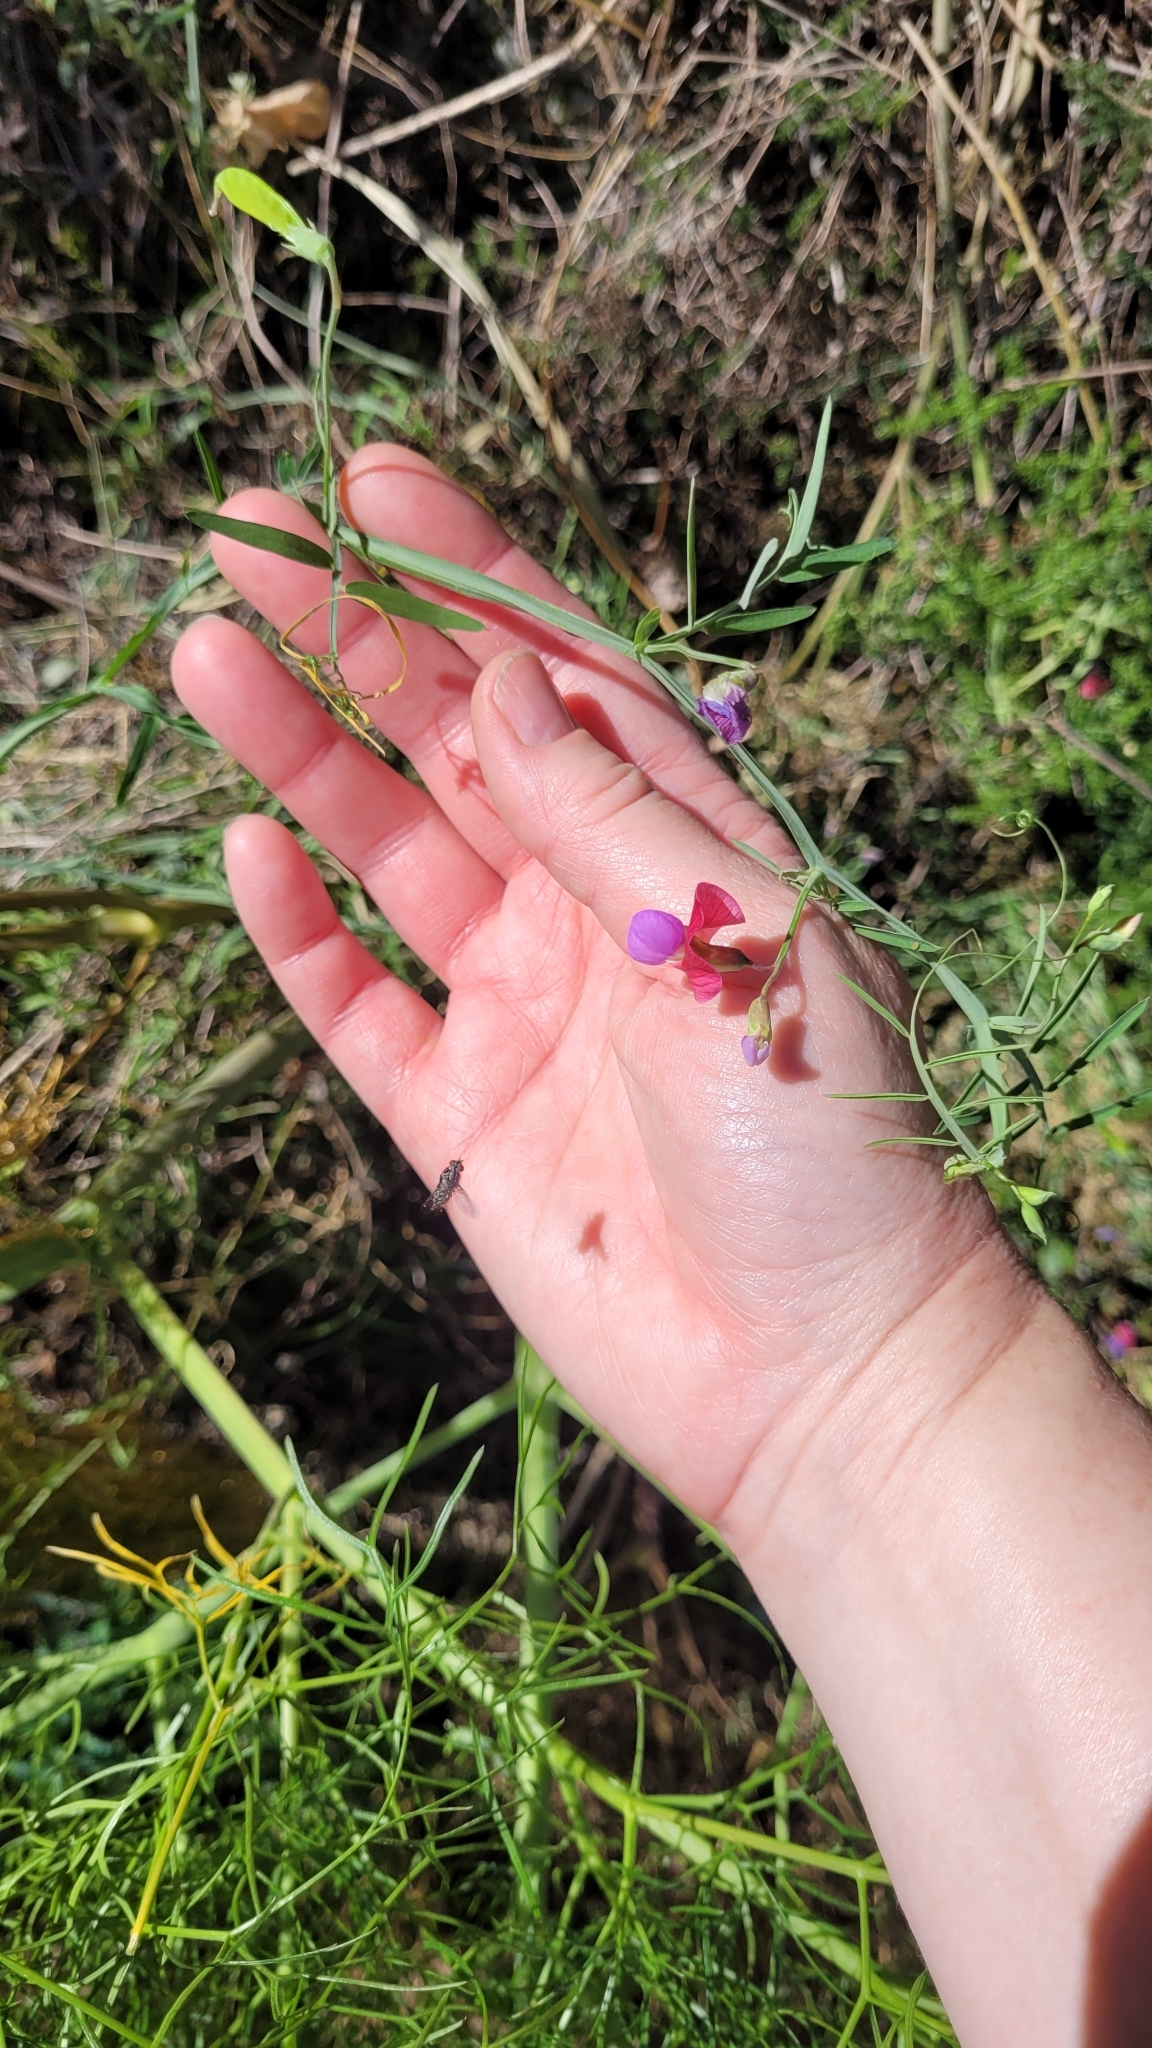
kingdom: Plantae
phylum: Tracheophyta
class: Magnoliopsida
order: Fabales
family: Fabaceae
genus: Lathyrus
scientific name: Lathyrus clymenum
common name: Spanish vetchling
